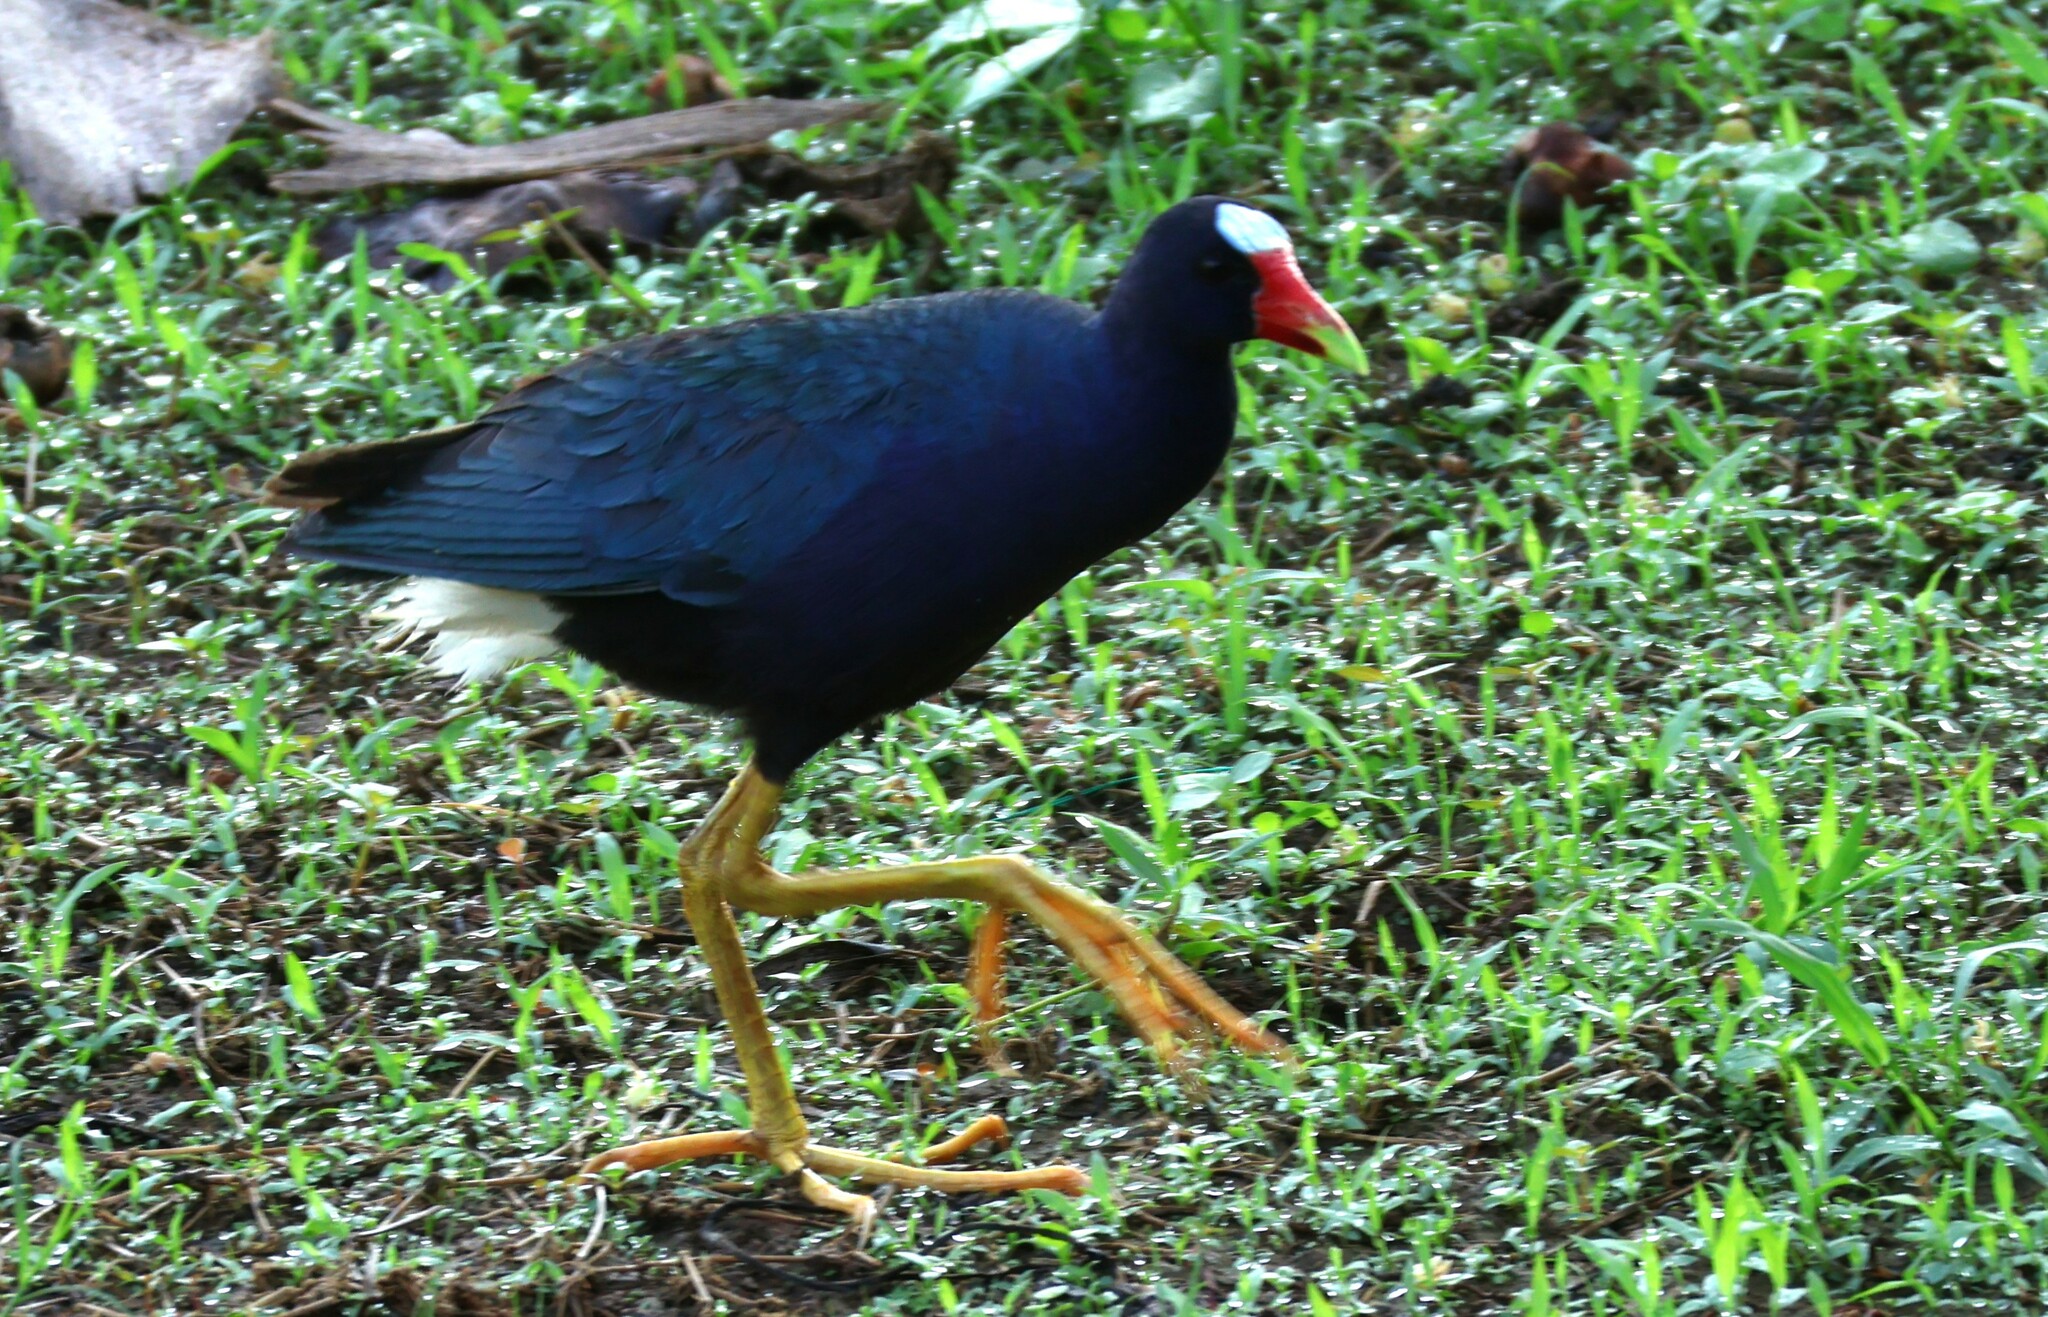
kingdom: Animalia
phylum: Chordata
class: Aves
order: Gruiformes
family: Rallidae
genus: Porphyrio
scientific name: Porphyrio martinica
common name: Purple gallinule
